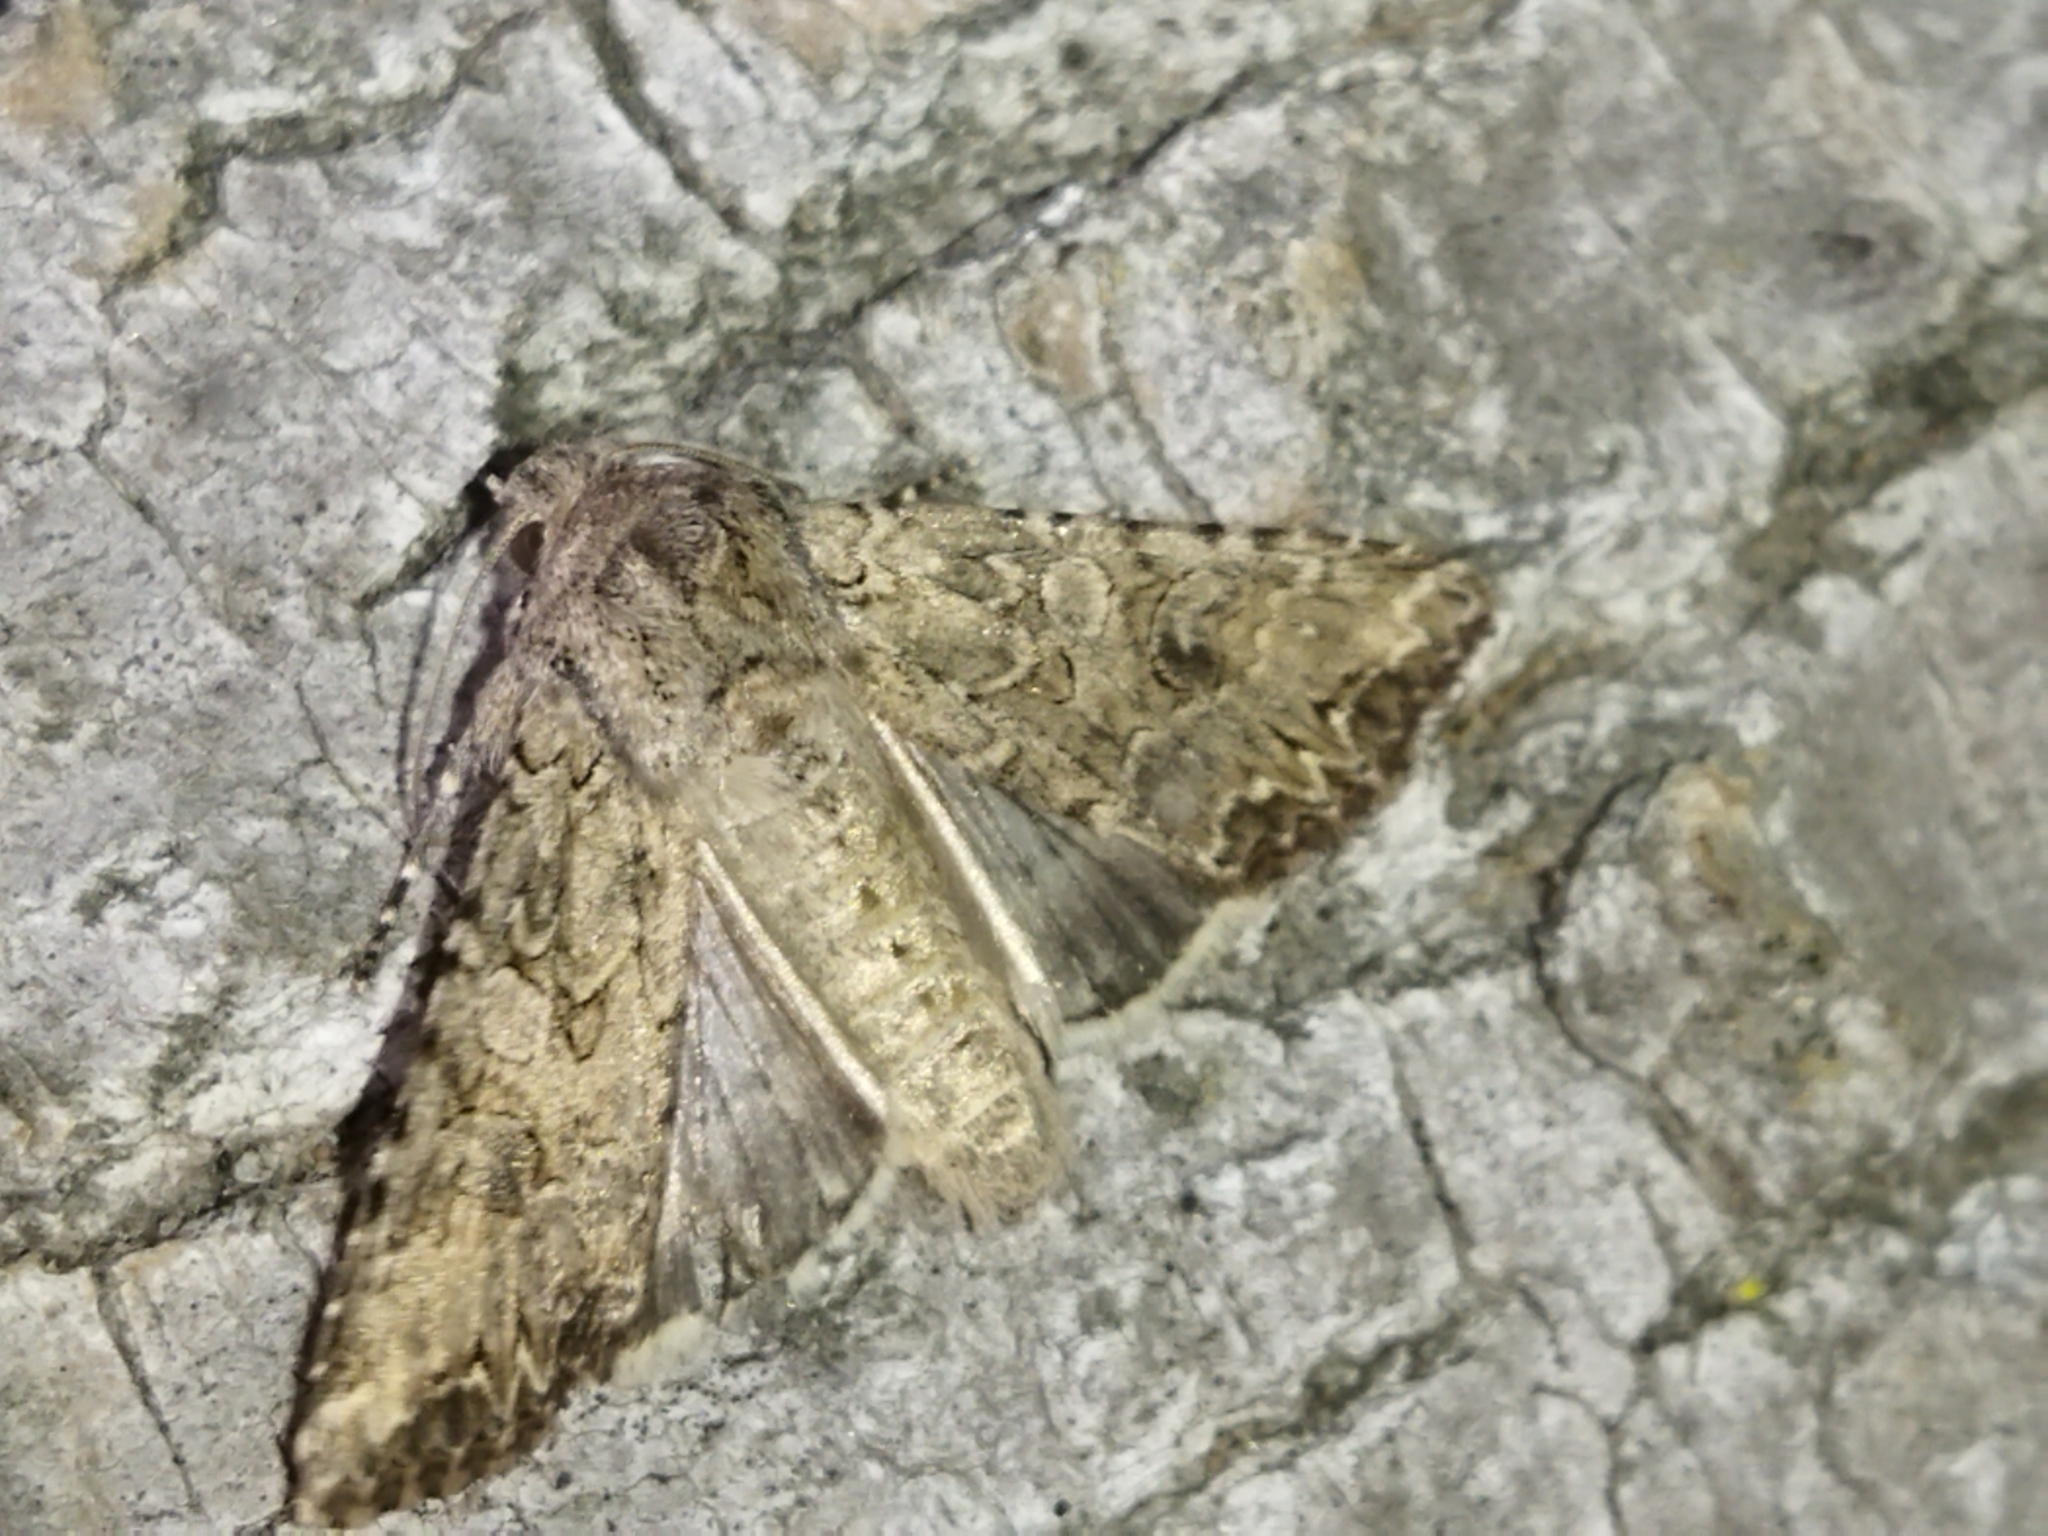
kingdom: Animalia
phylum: Arthropoda
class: Insecta
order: Lepidoptera
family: Noctuidae
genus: Anarta
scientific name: Anarta trifolii
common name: Clover cutworm moth
